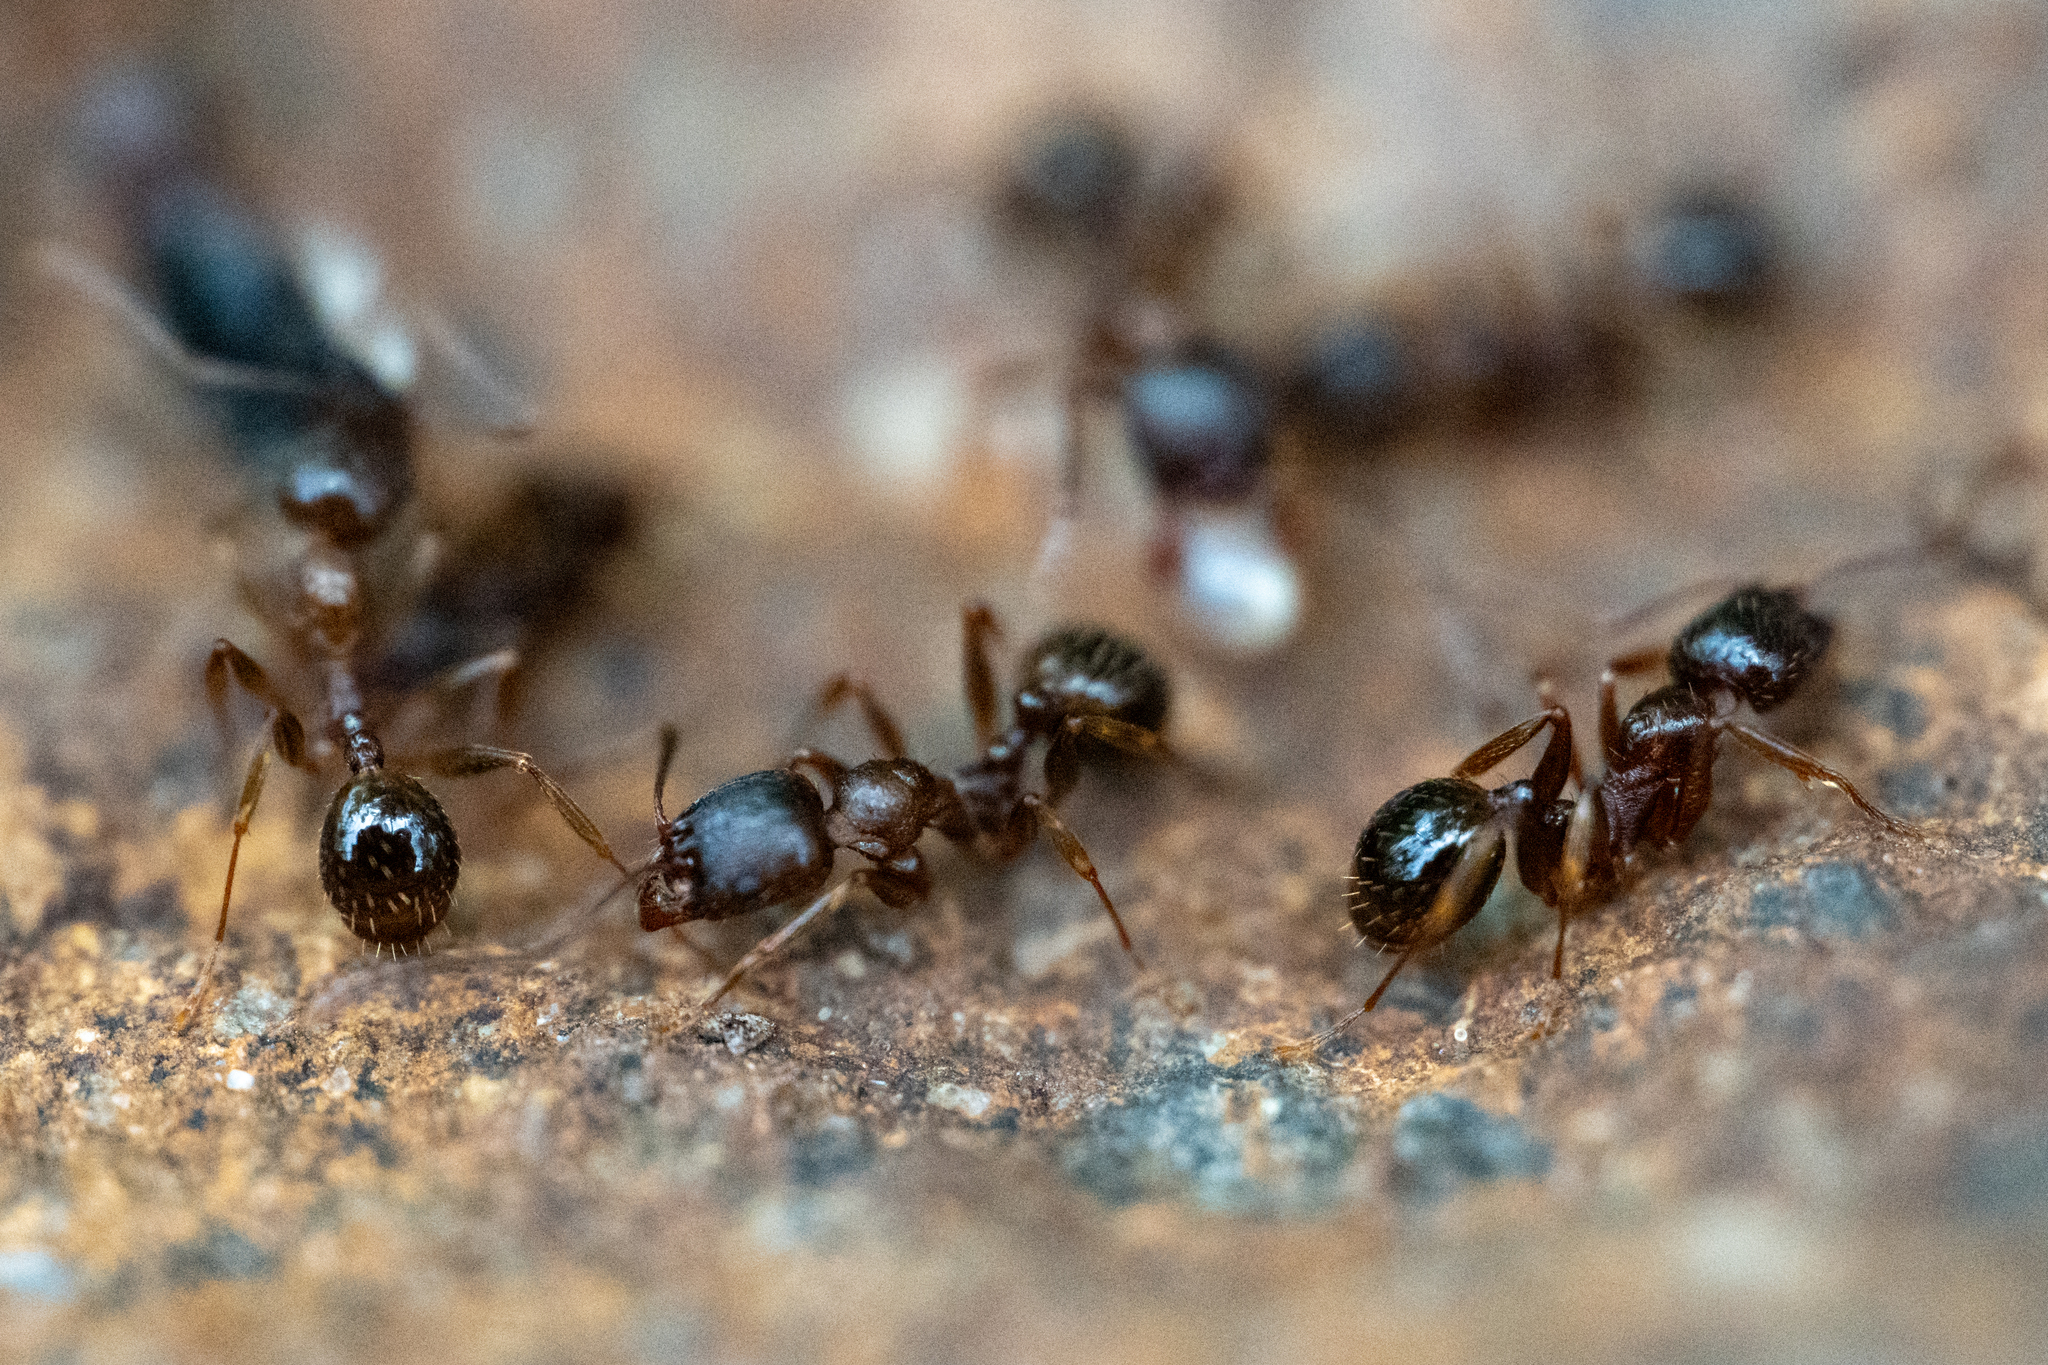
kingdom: Animalia
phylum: Arthropoda
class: Insecta
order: Hymenoptera
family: Formicidae
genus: Aphaenogaster
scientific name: Aphaenogaster occidentalis
